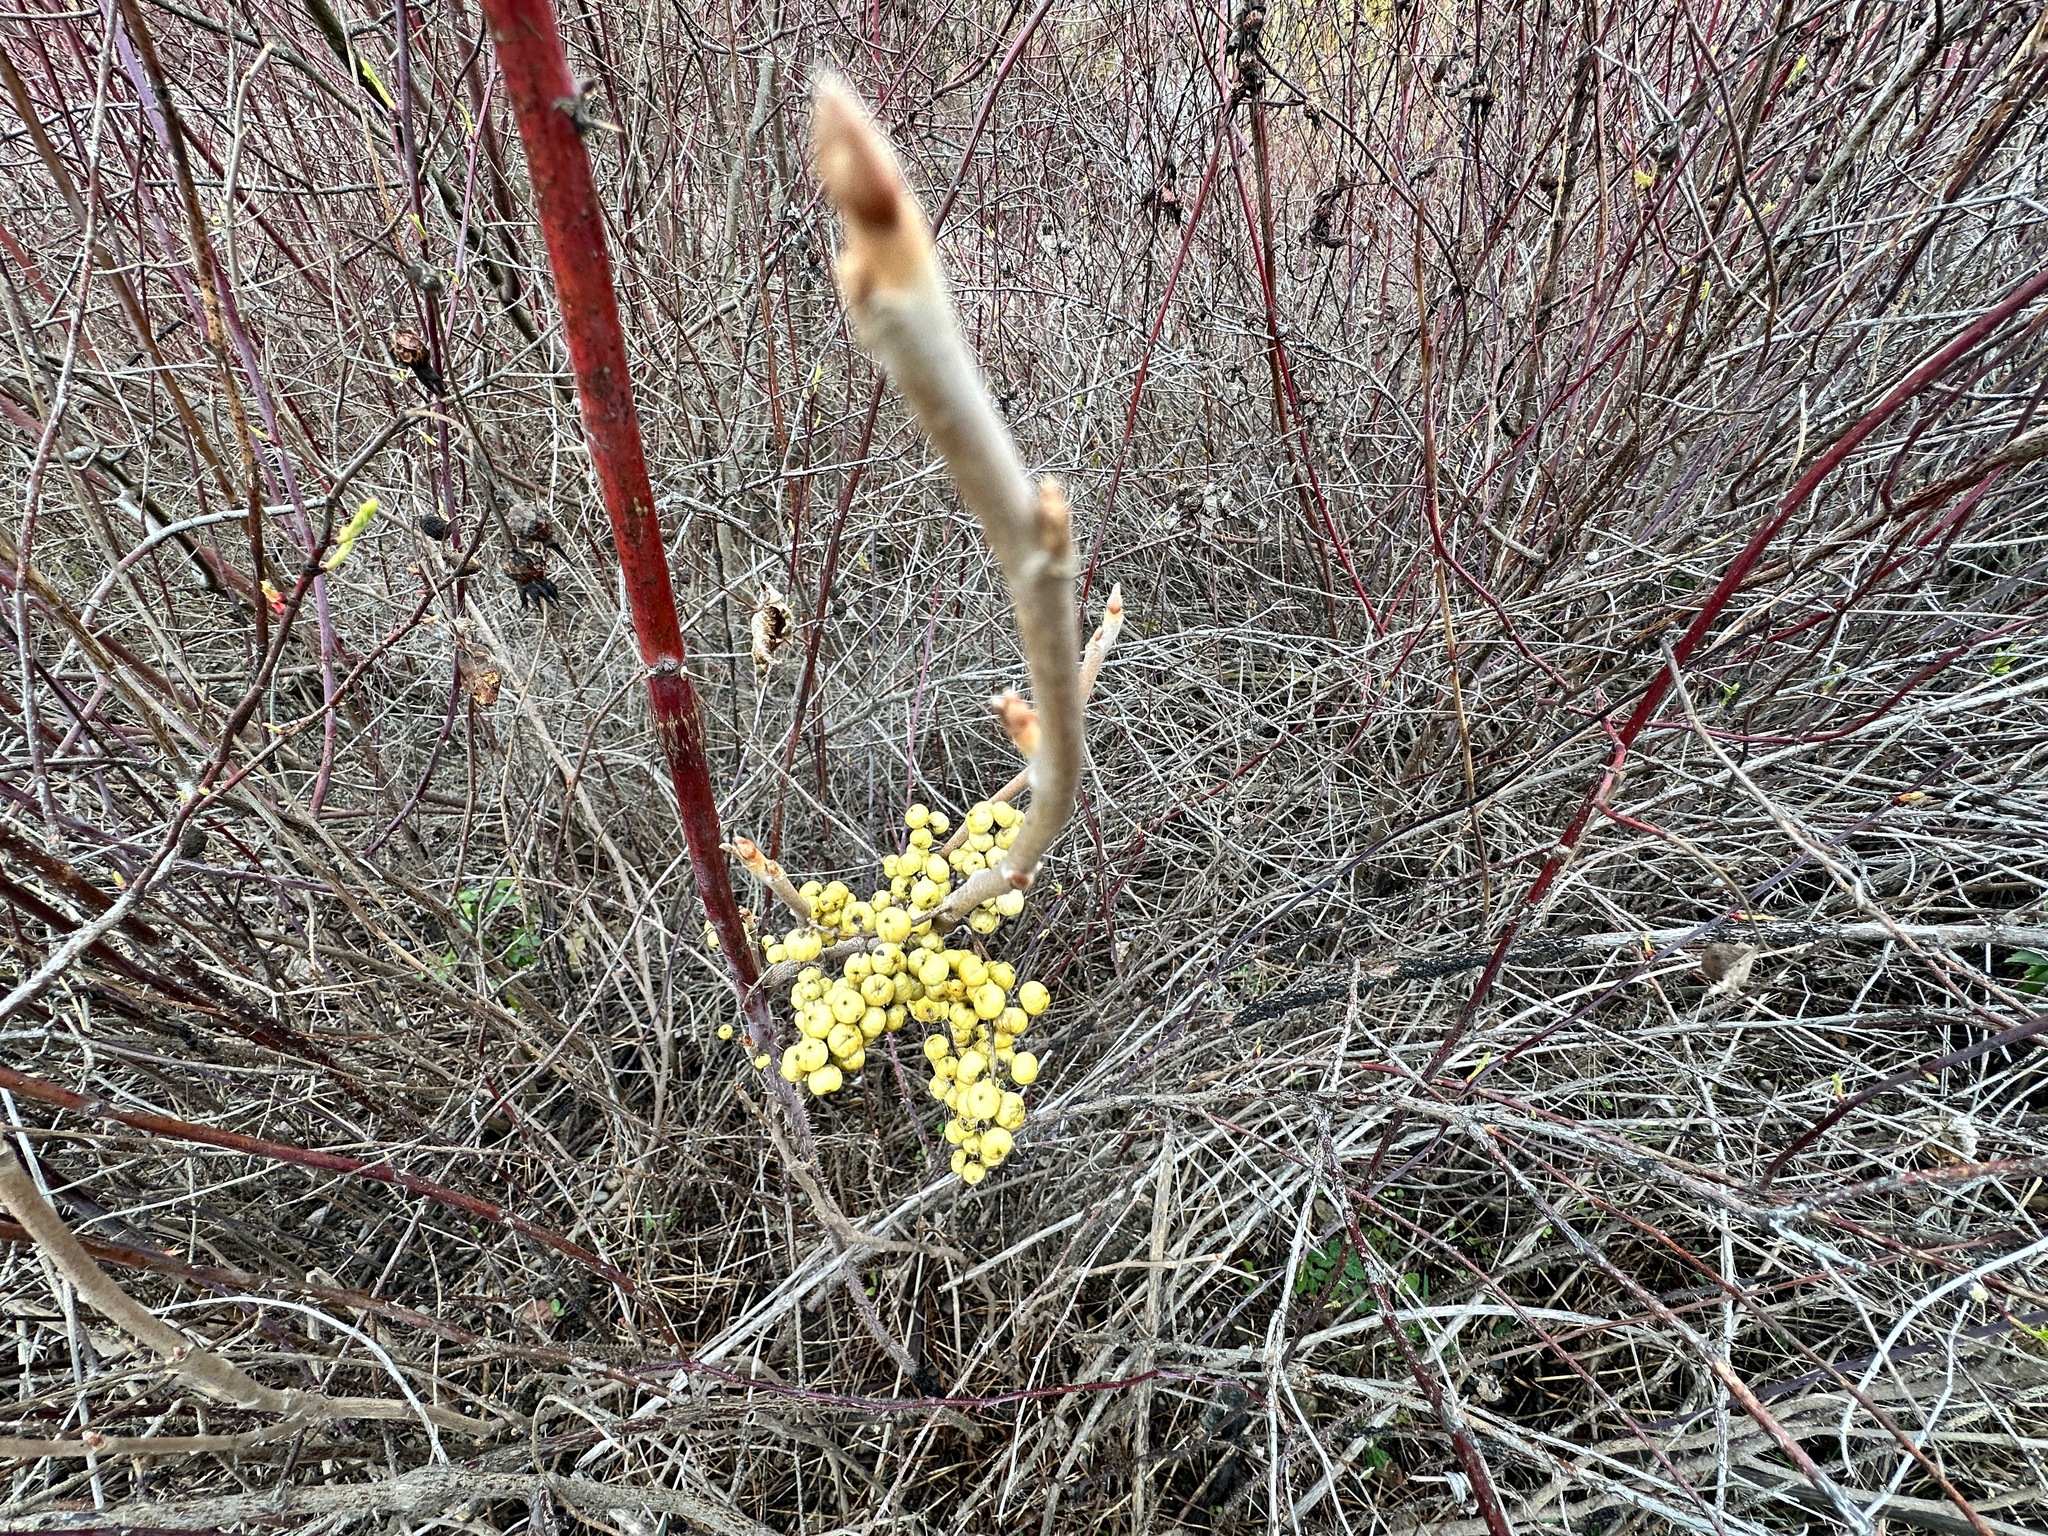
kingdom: Plantae
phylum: Tracheophyta
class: Magnoliopsida
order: Sapindales
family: Anacardiaceae
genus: Toxicodendron
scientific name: Toxicodendron rydbergii
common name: Rydberg's poison-ivy
